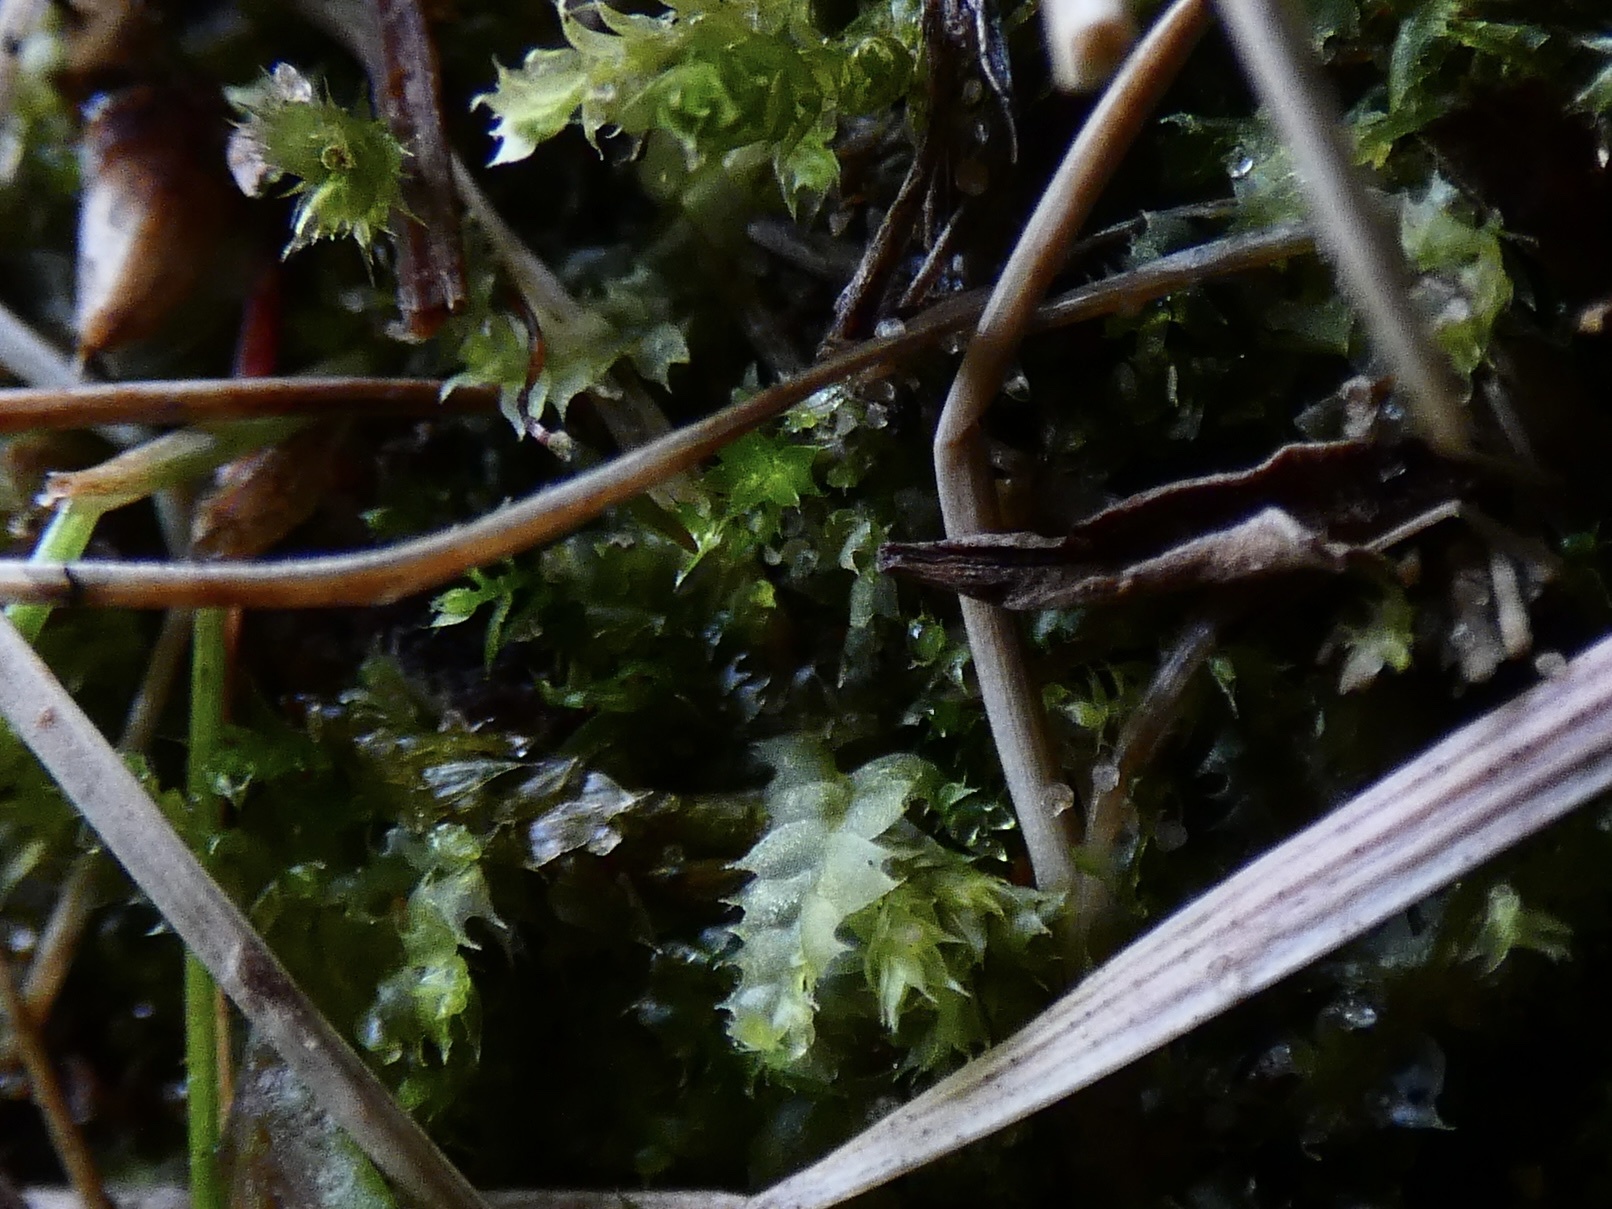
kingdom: Plantae
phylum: Marchantiophyta
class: Jungermanniopsida
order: Jungermanniales
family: Lophocoleaceae
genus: Lophocolea
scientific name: Lophocolea bidentata
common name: Bifid crestwort
